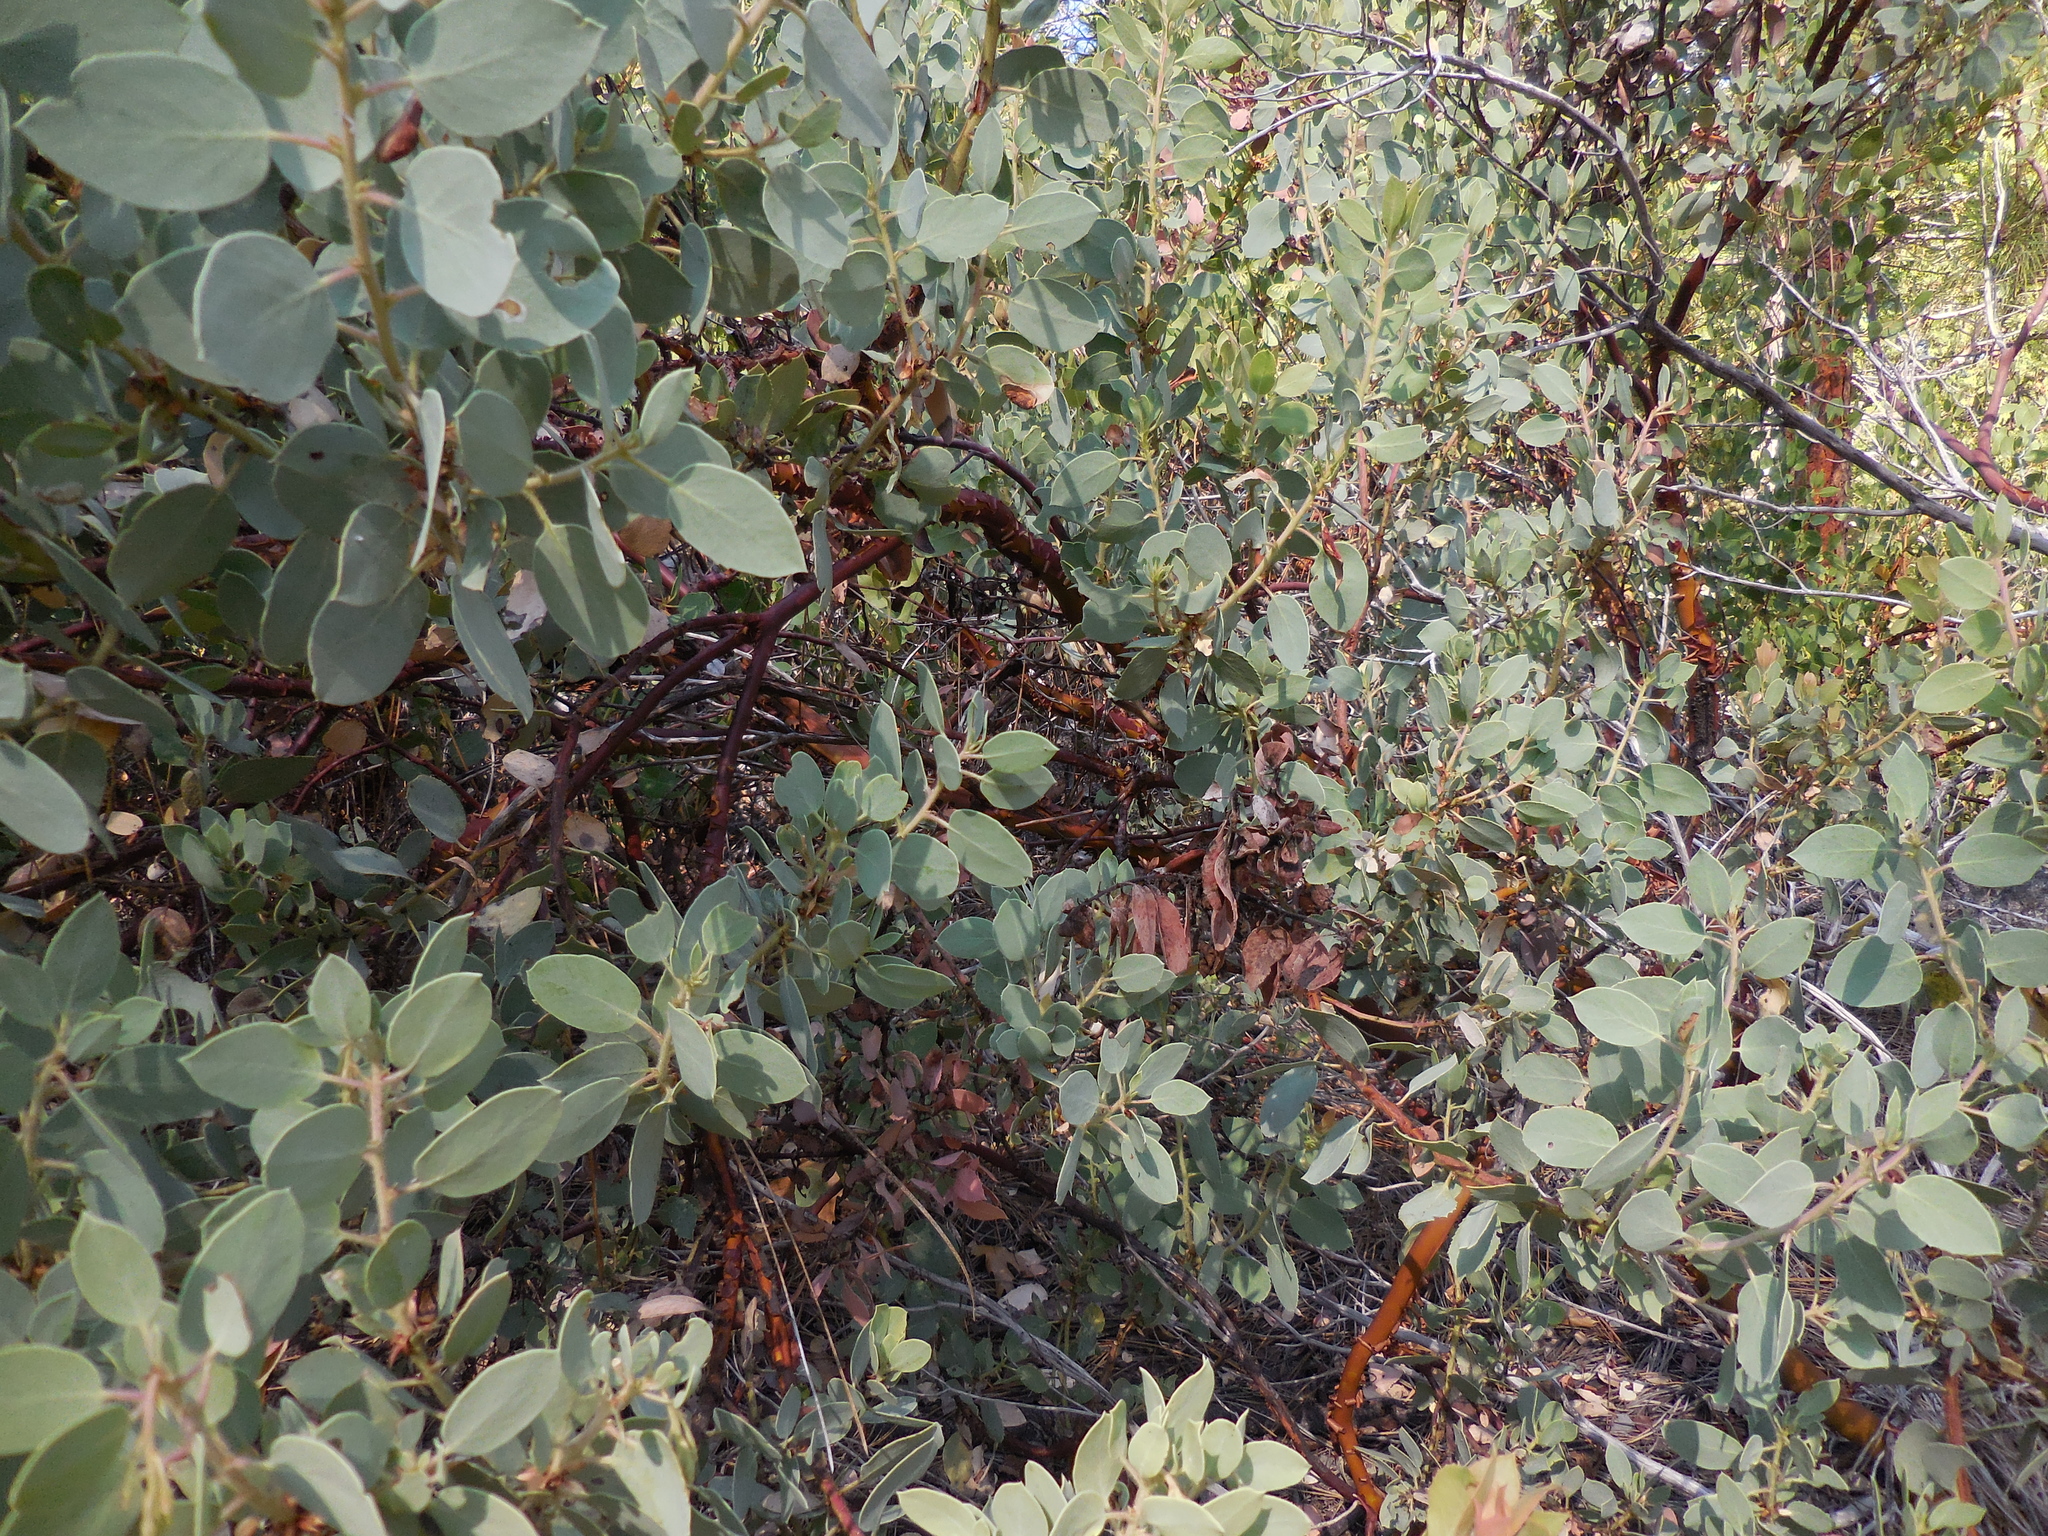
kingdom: Plantae
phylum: Tracheophyta
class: Magnoliopsida
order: Ericales
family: Ericaceae
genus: Arctostaphylos
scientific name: Arctostaphylos viscida
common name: White-leaf manzanita
